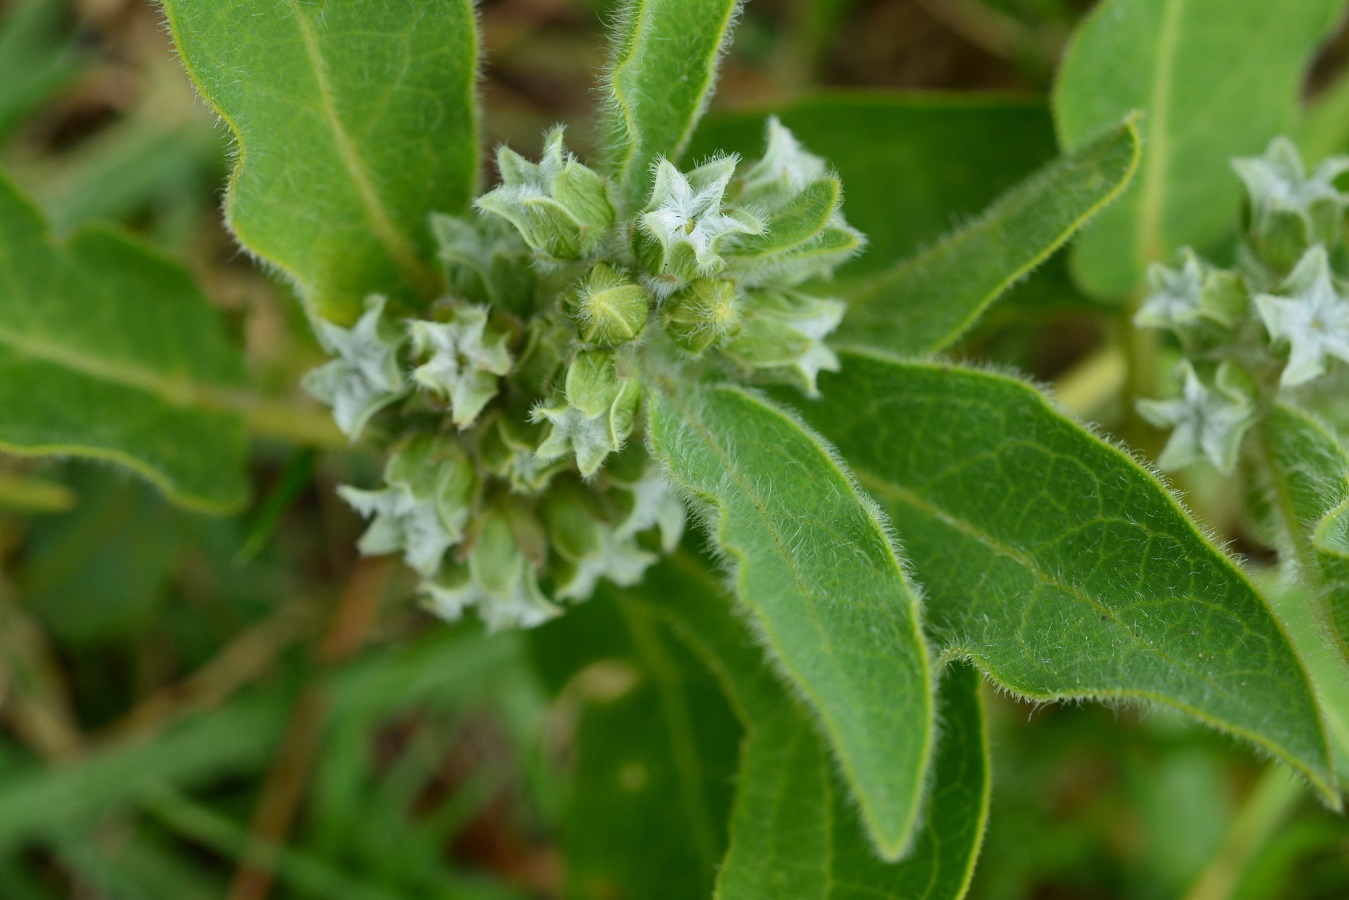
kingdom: Plantae
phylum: Tracheophyta
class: Magnoliopsida
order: Gentianales
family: Apocynaceae
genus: Pherotrichis
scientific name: Pherotrichis villosa
